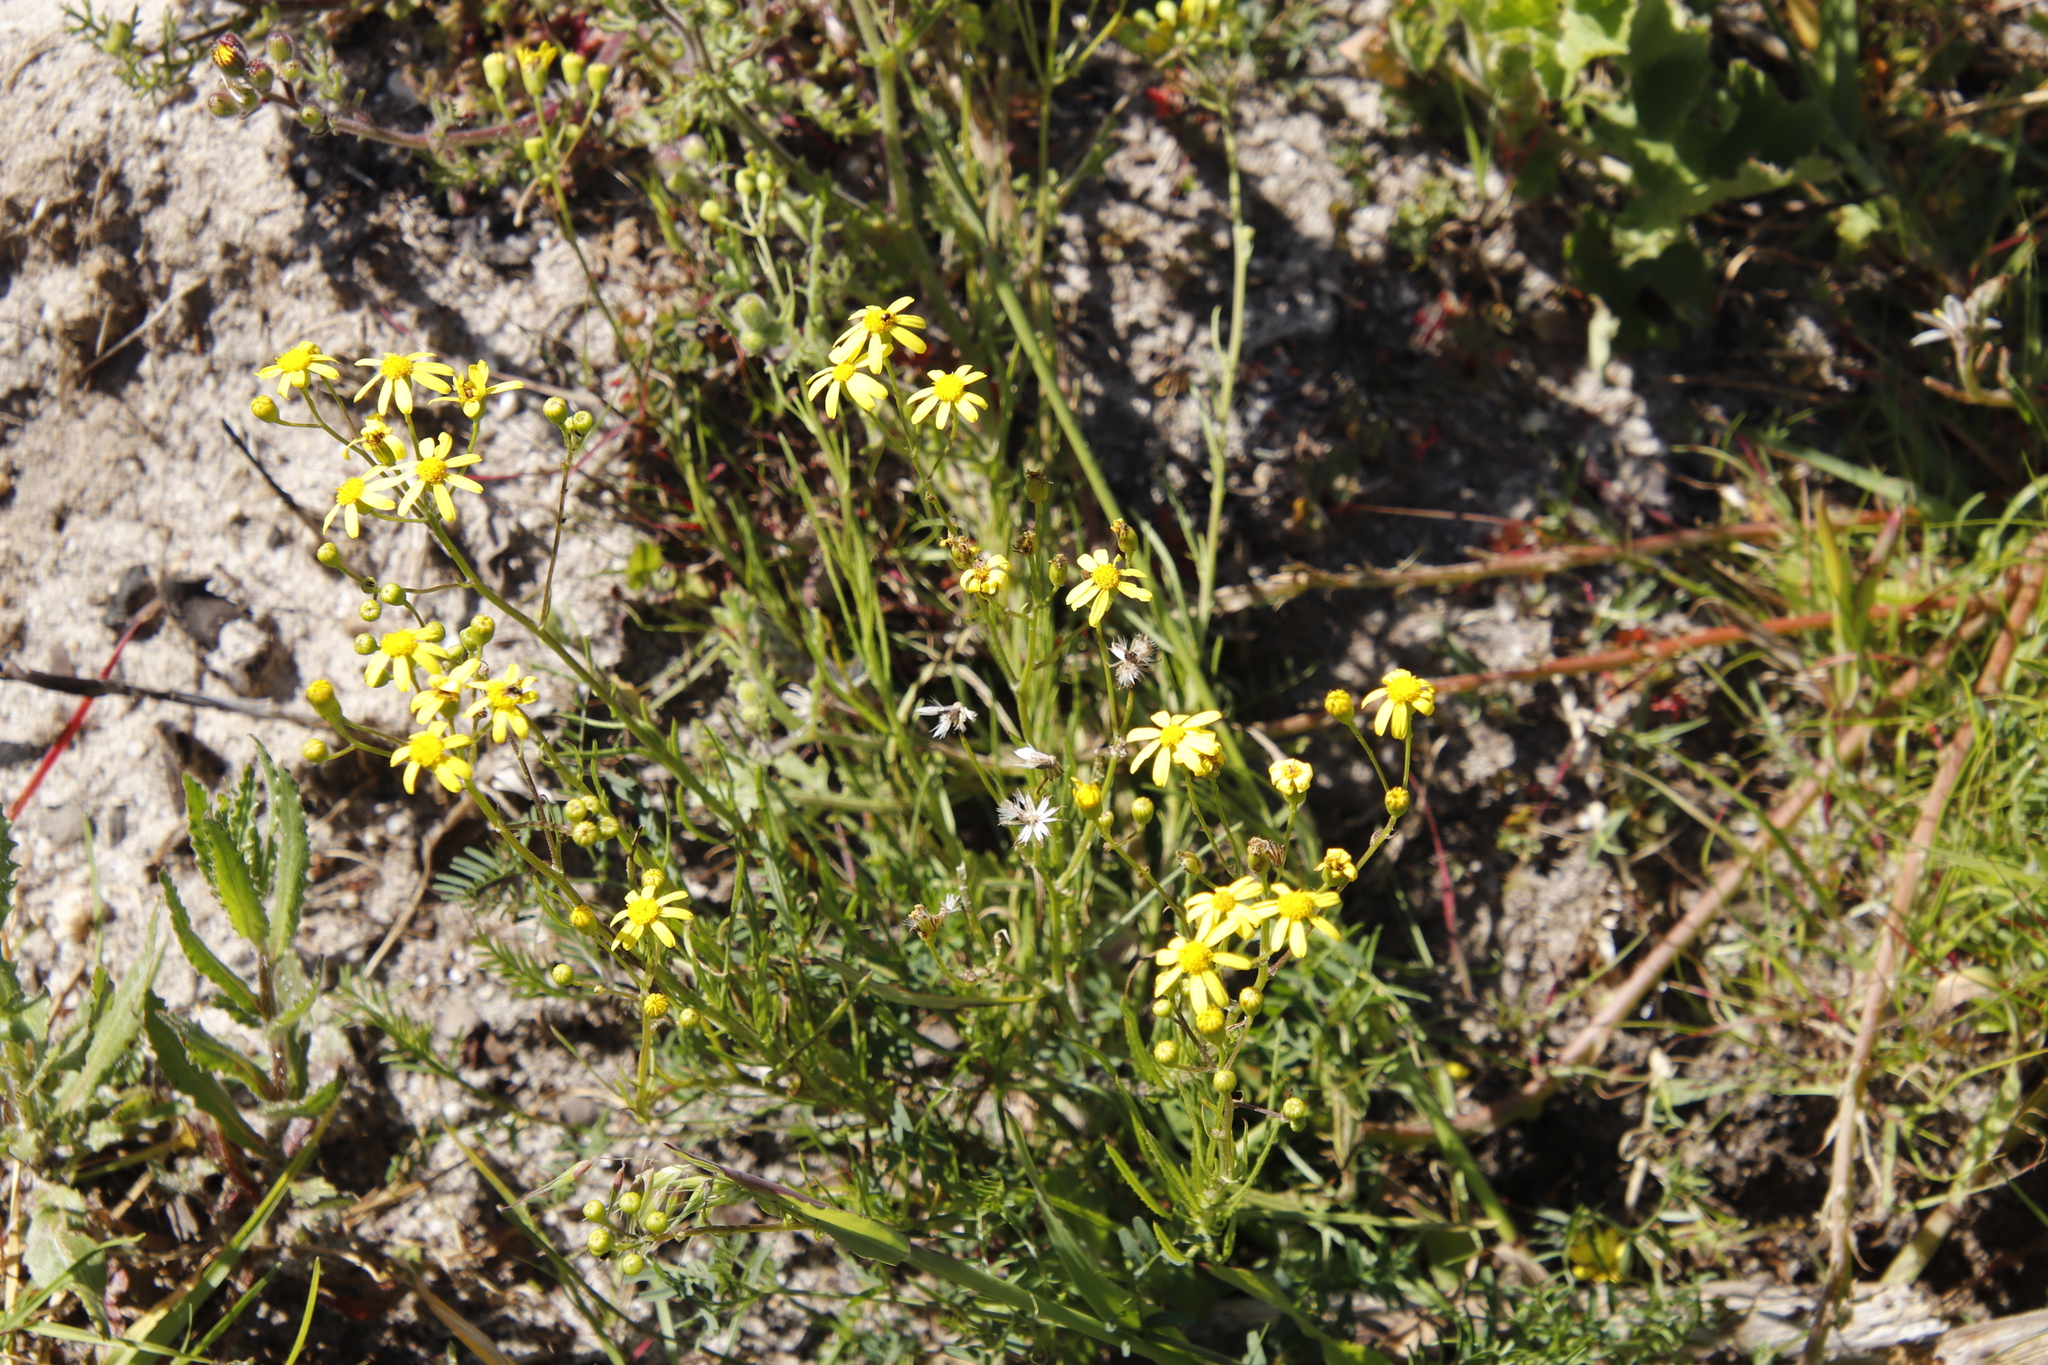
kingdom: Plantae
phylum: Tracheophyta
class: Magnoliopsida
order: Asterales
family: Asteraceae
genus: Senecio
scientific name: Senecio burchellii
